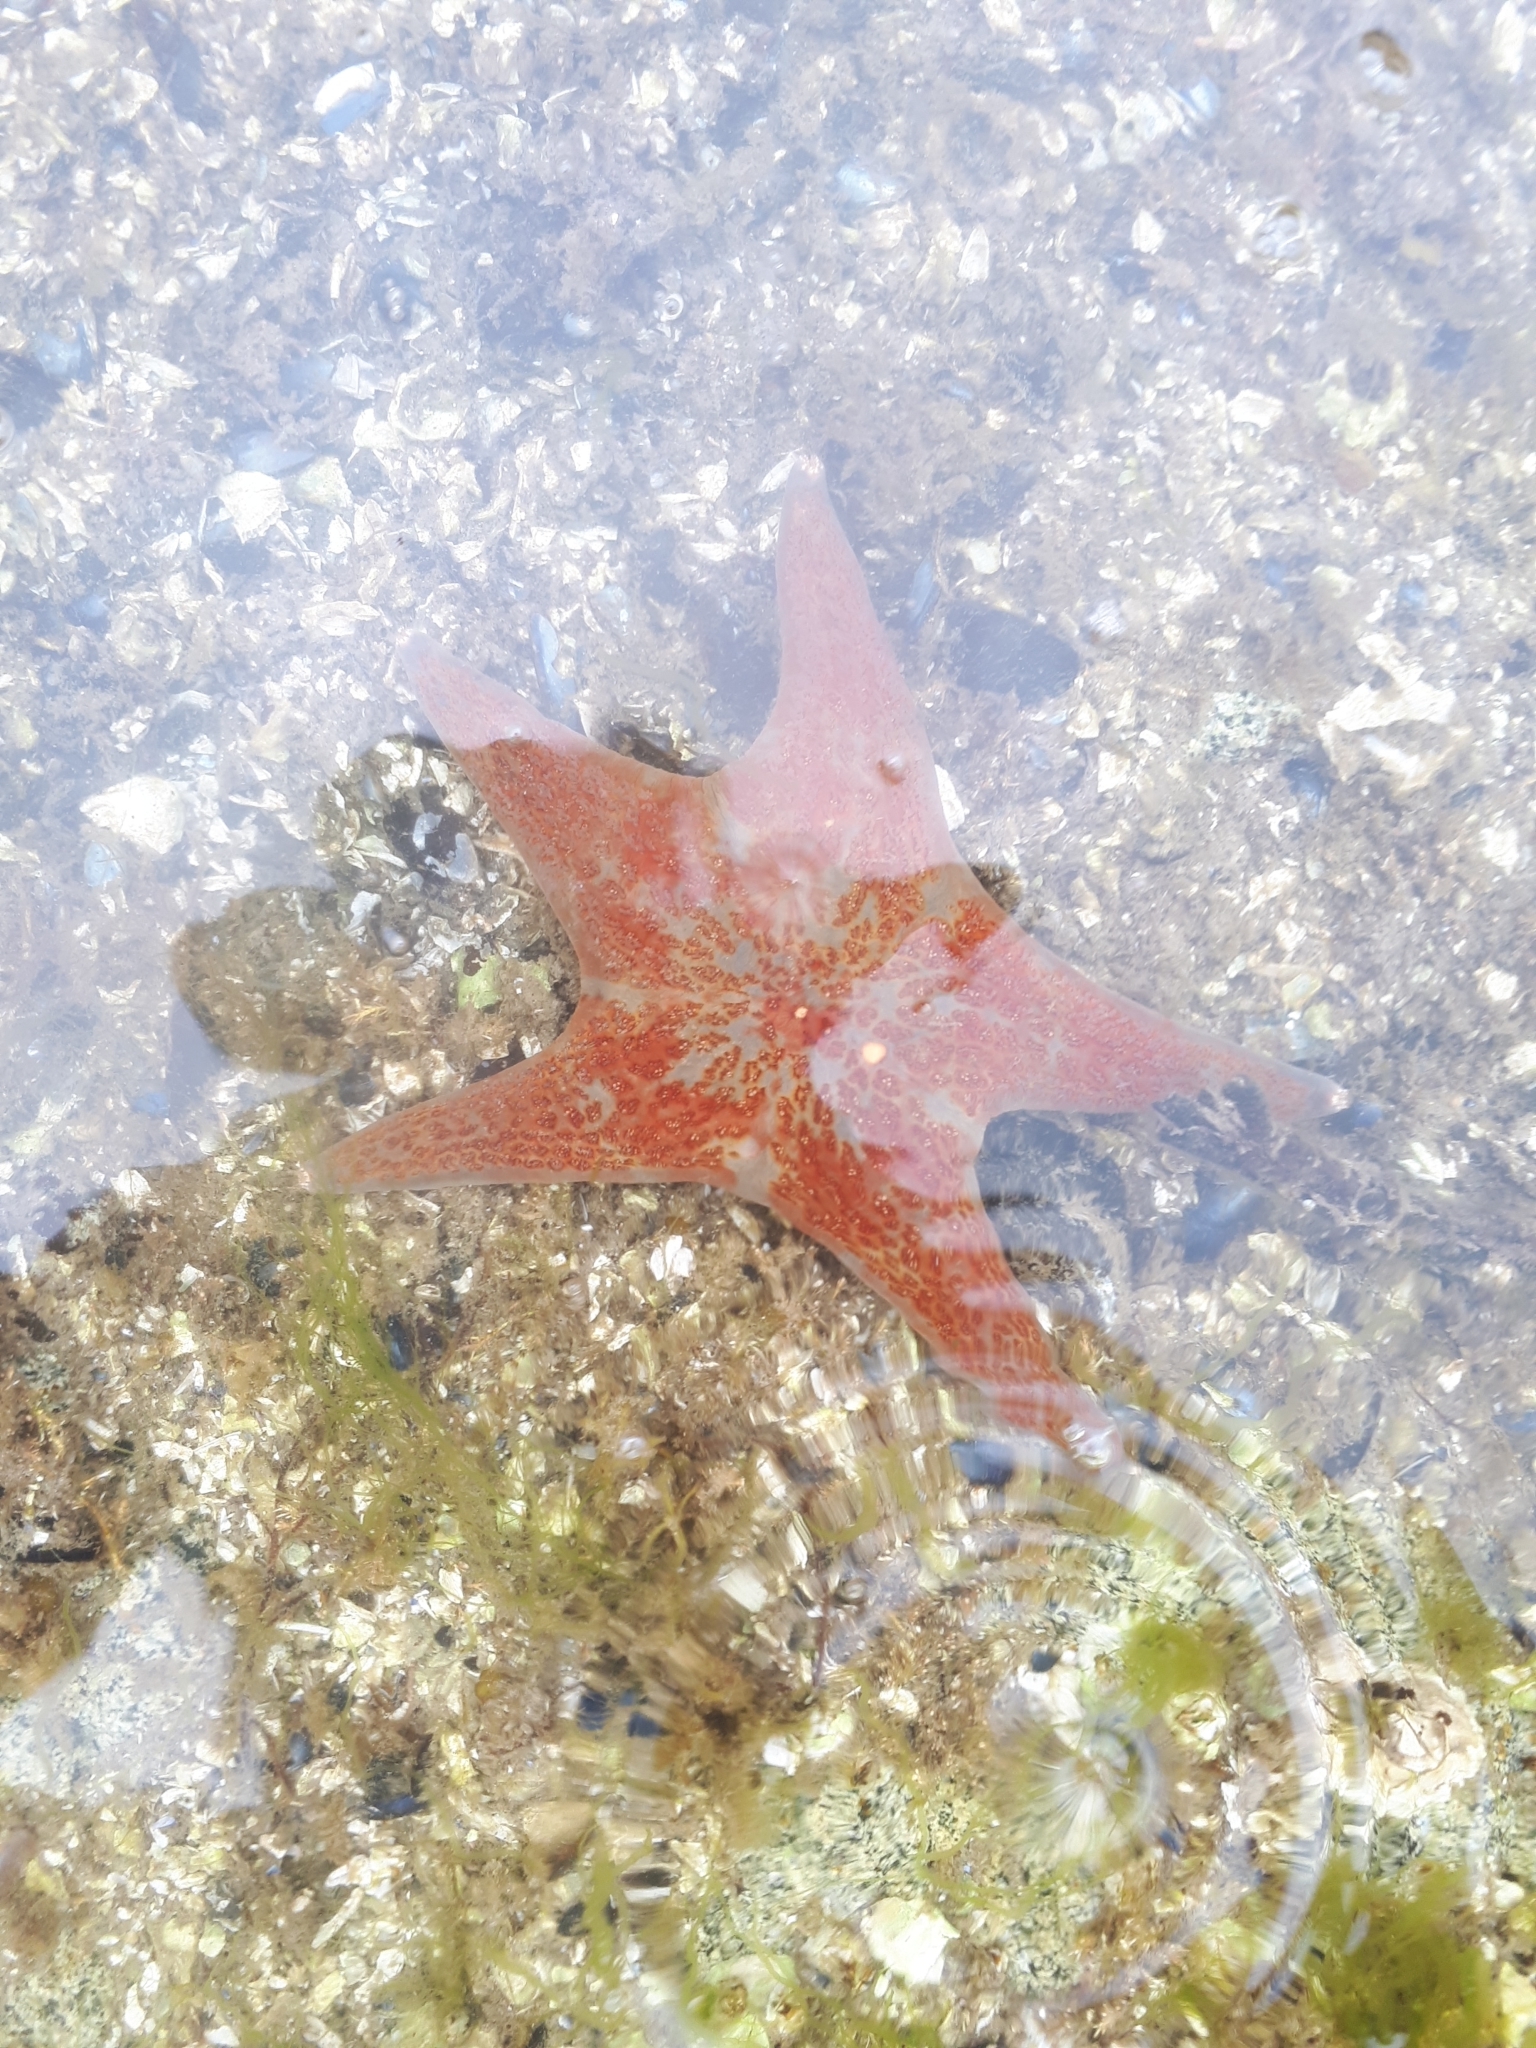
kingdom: Animalia
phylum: Echinodermata
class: Asteroidea
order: Valvatida
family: Asteropseidae
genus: Dermasterias
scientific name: Dermasterias imbricata
